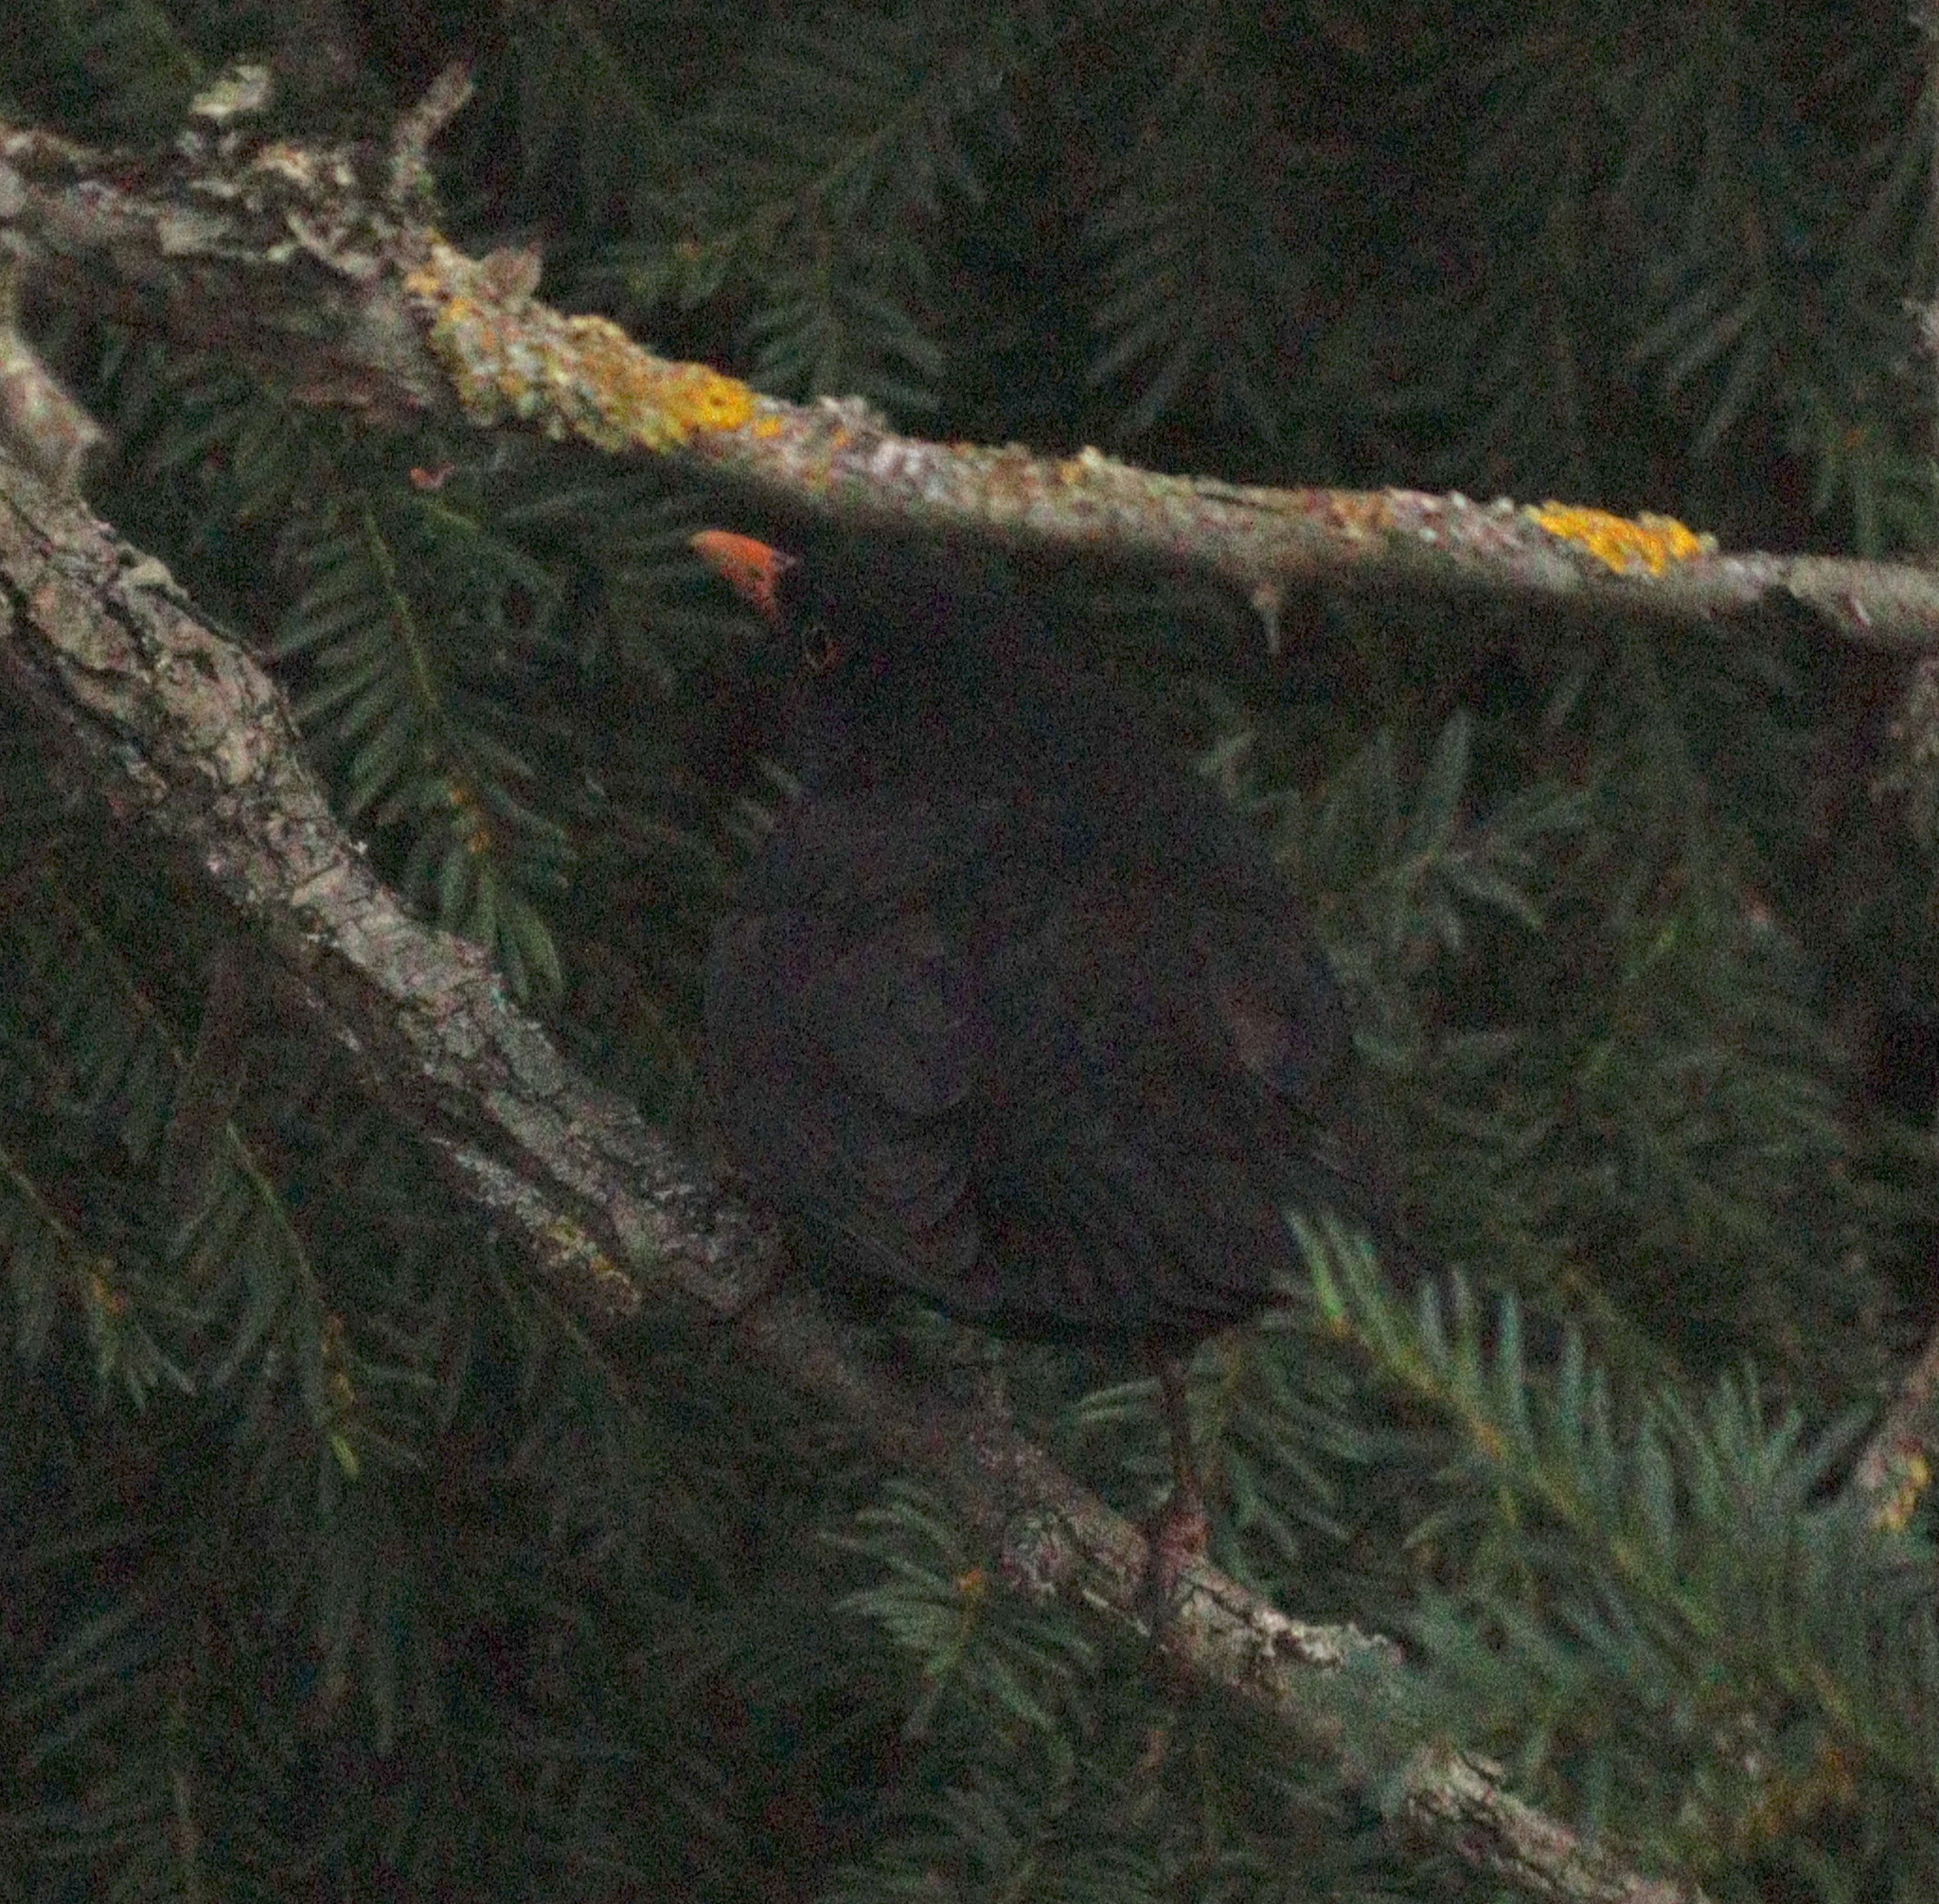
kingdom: Animalia
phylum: Chordata
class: Aves
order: Passeriformes
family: Turdidae
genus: Turdus
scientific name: Turdus merula
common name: Common blackbird
